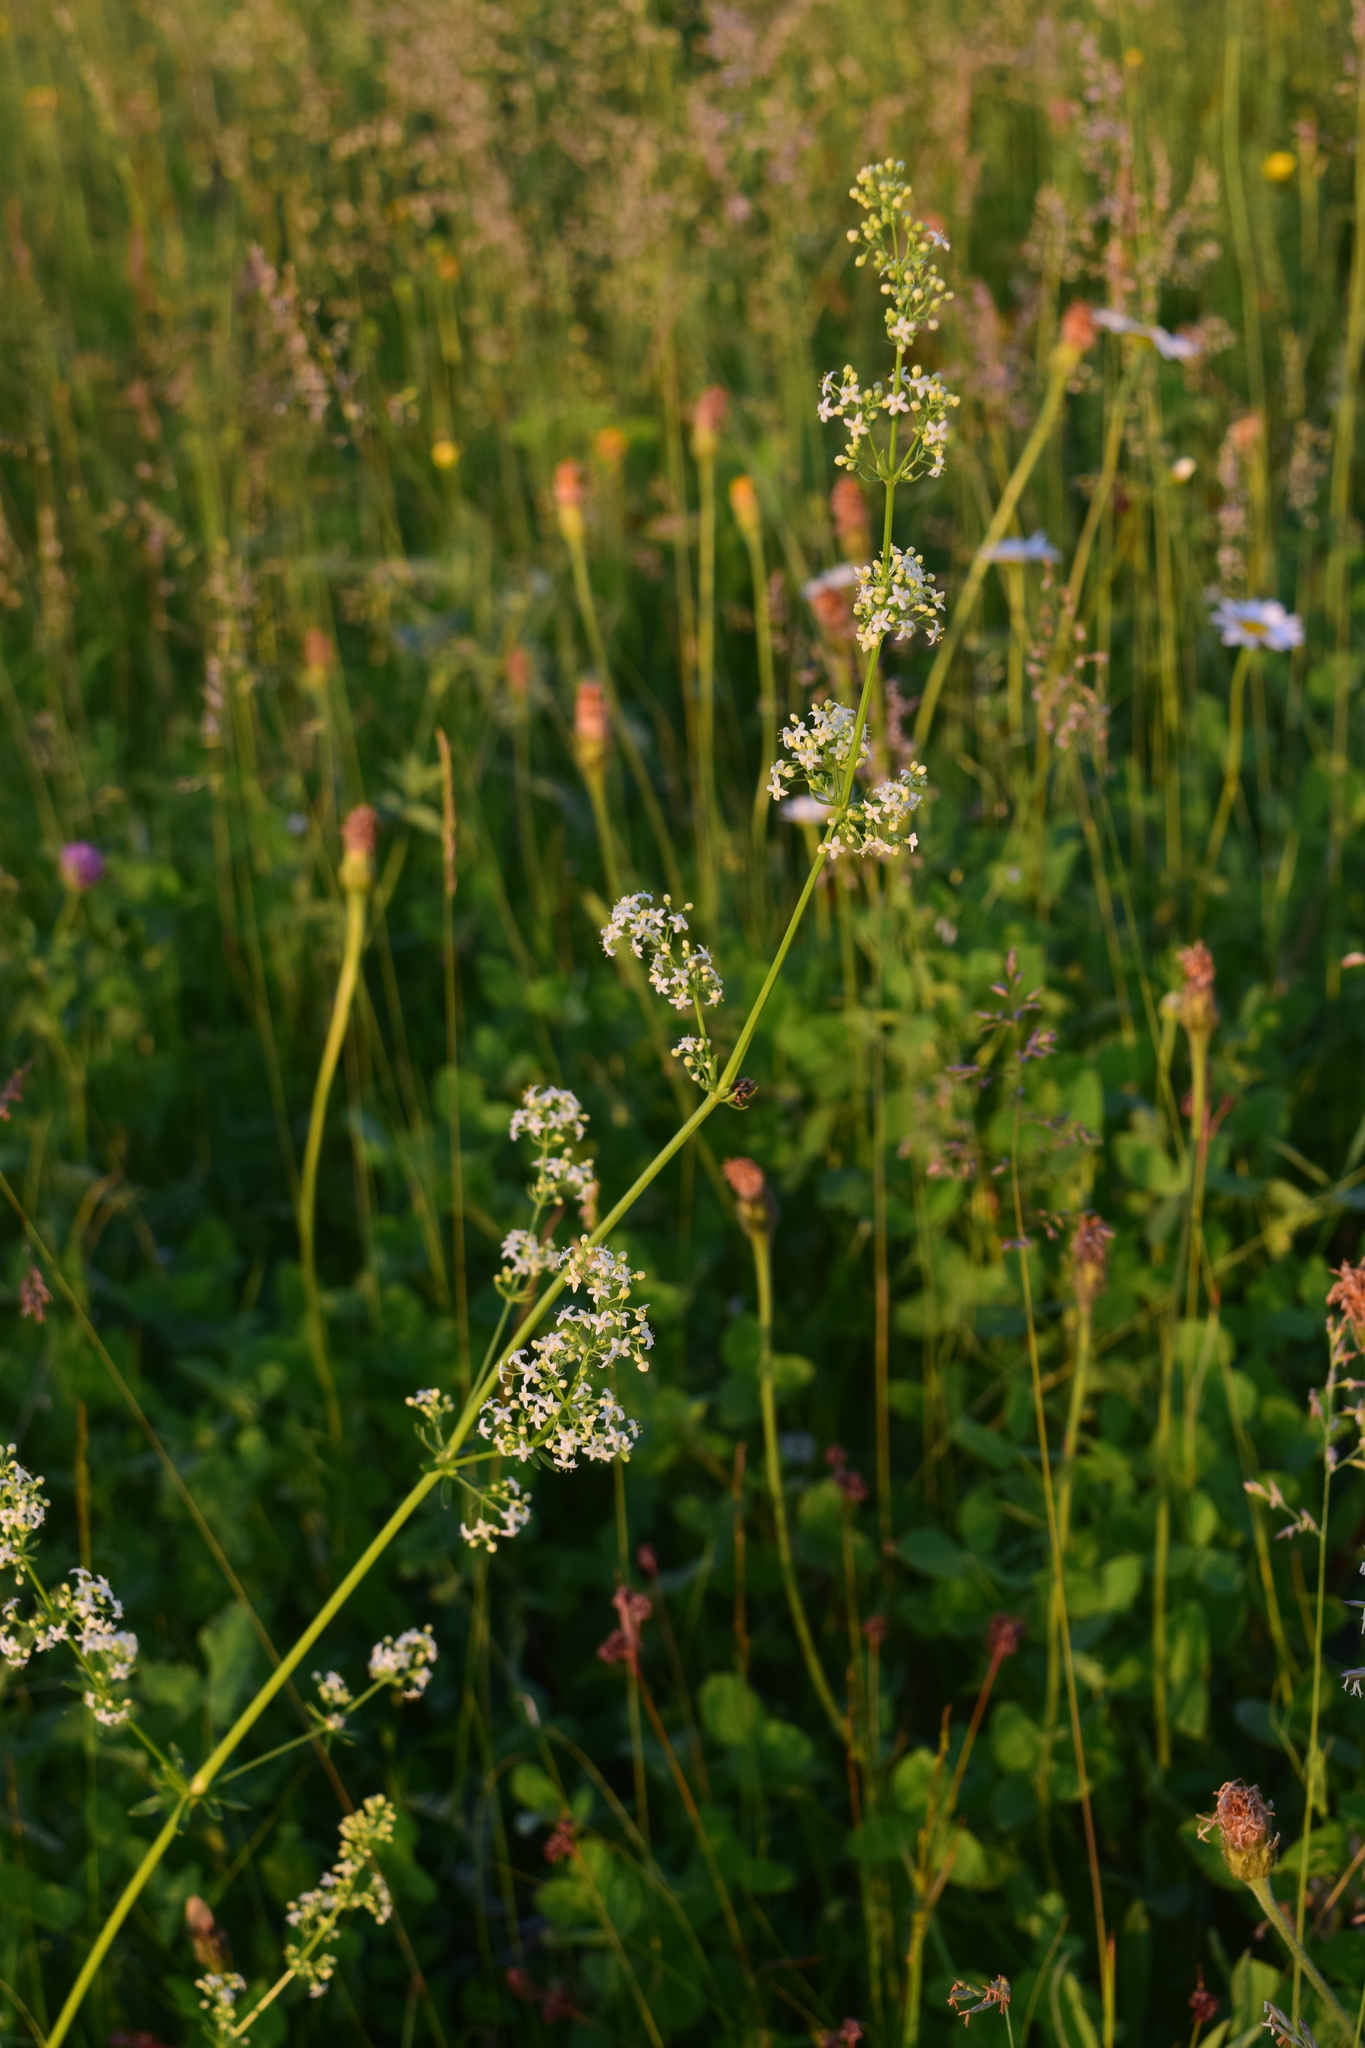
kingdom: Plantae
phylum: Tracheophyta
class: Magnoliopsida
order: Gentianales
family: Rubiaceae
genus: Galium
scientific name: Galium mollugo
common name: Hedge bedstraw
